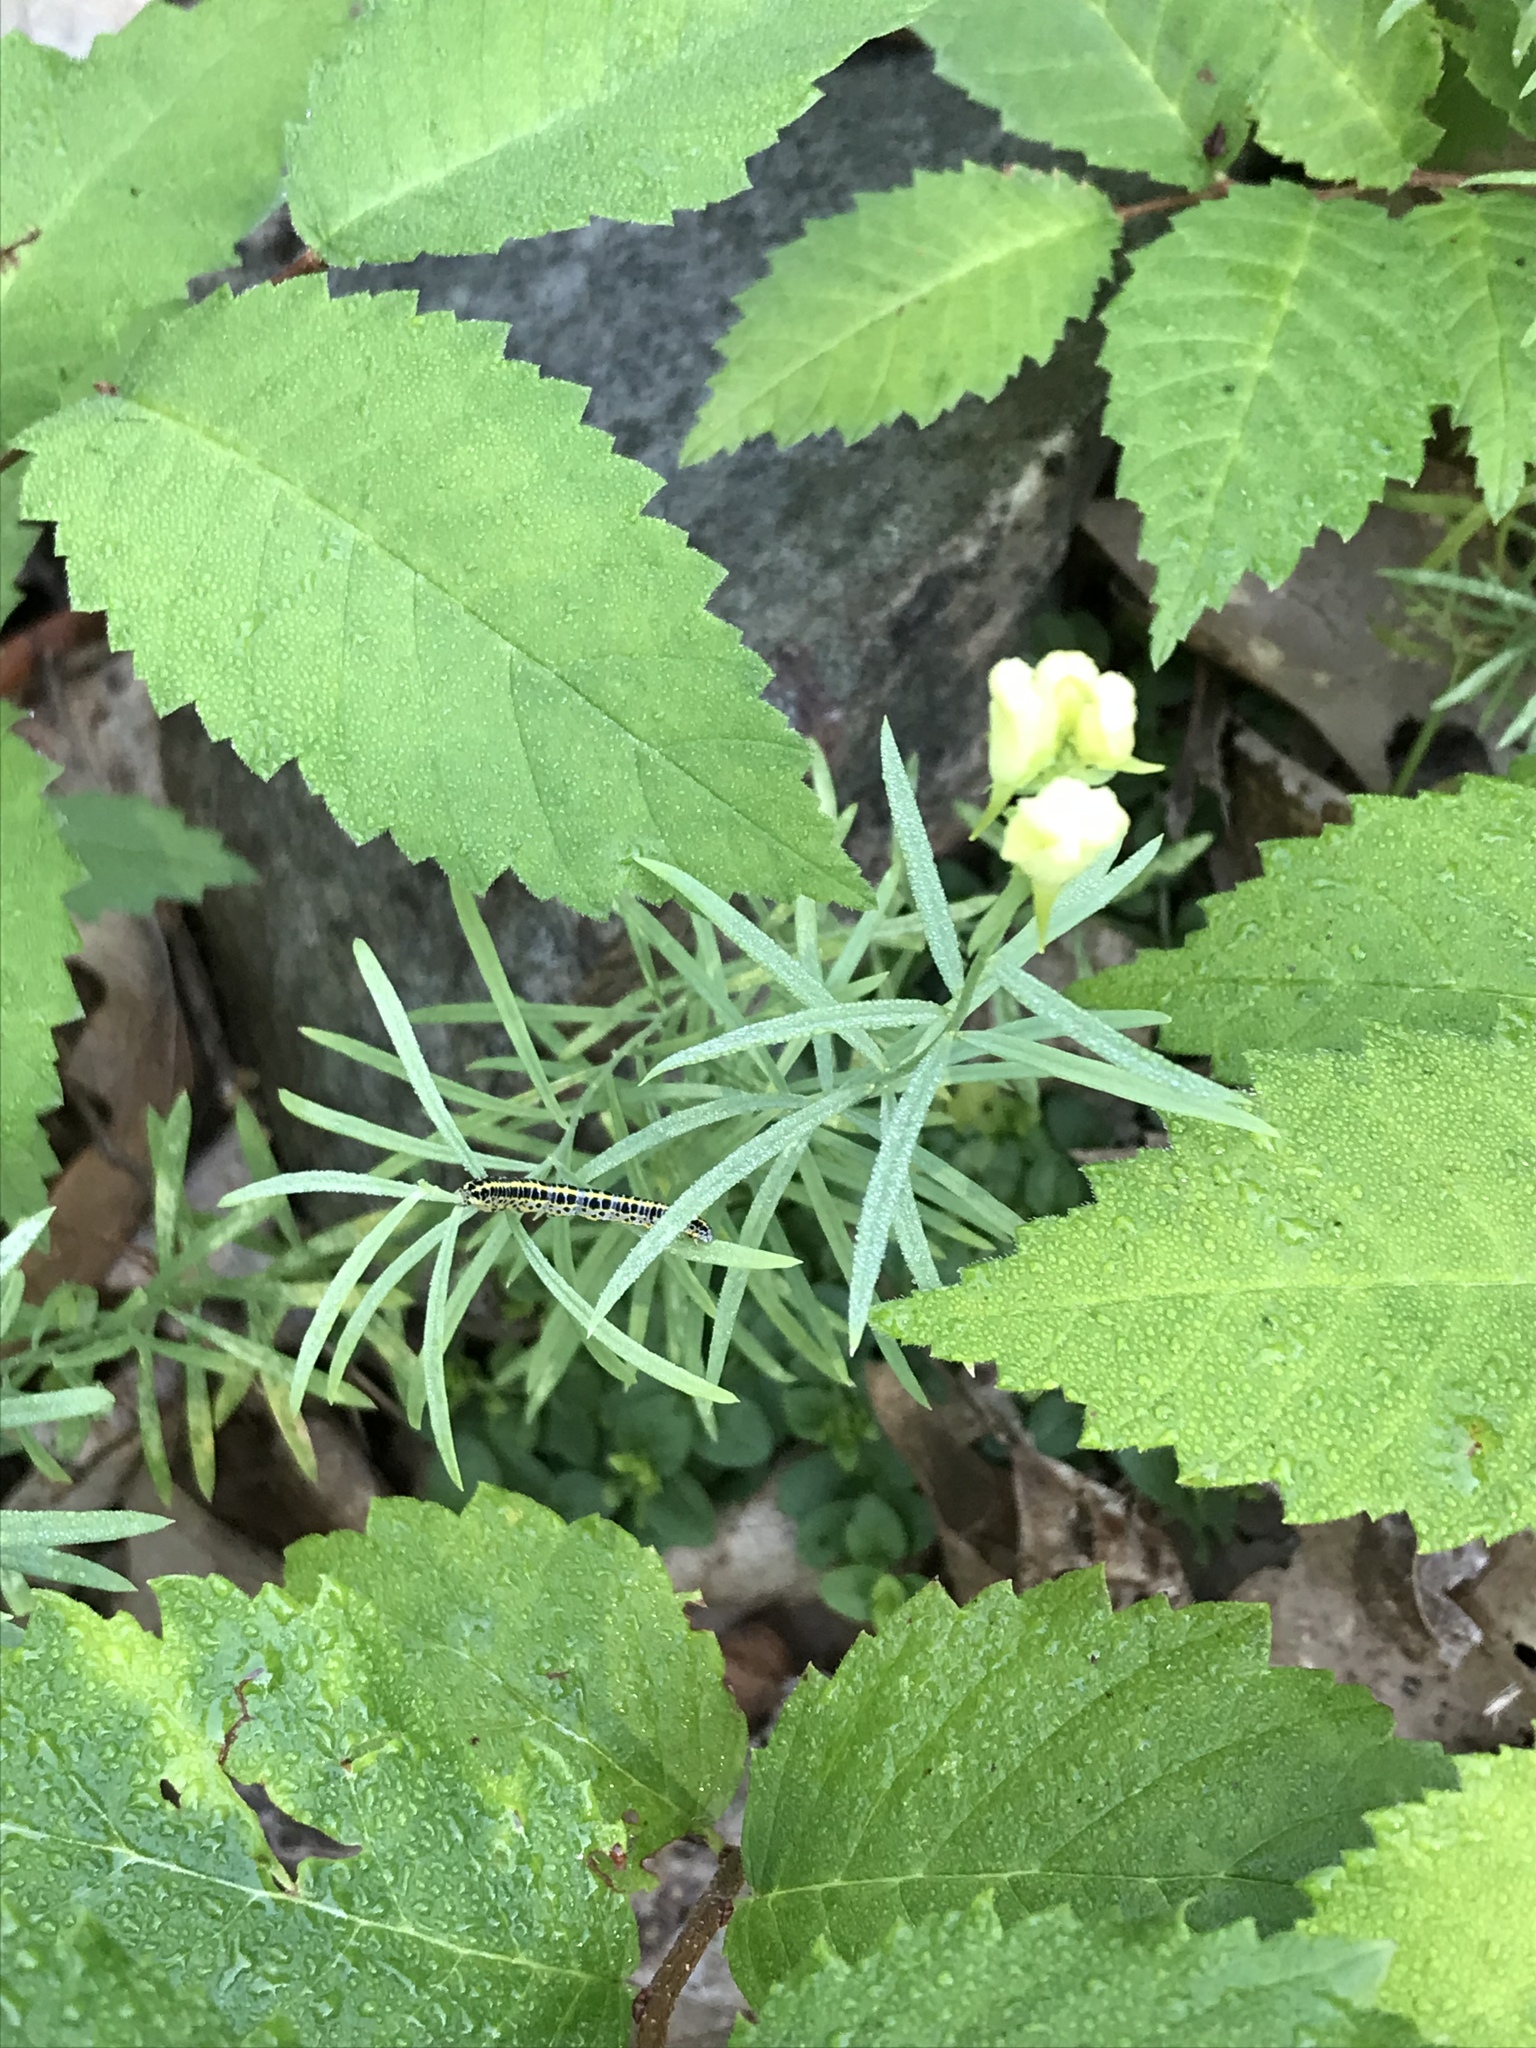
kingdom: Plantae
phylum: Tracheophyta
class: Magnoliopsida
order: Lamiales
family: Plantaginaceae
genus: Linaria
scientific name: Linaria vulgaris
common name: Butter and eggs
